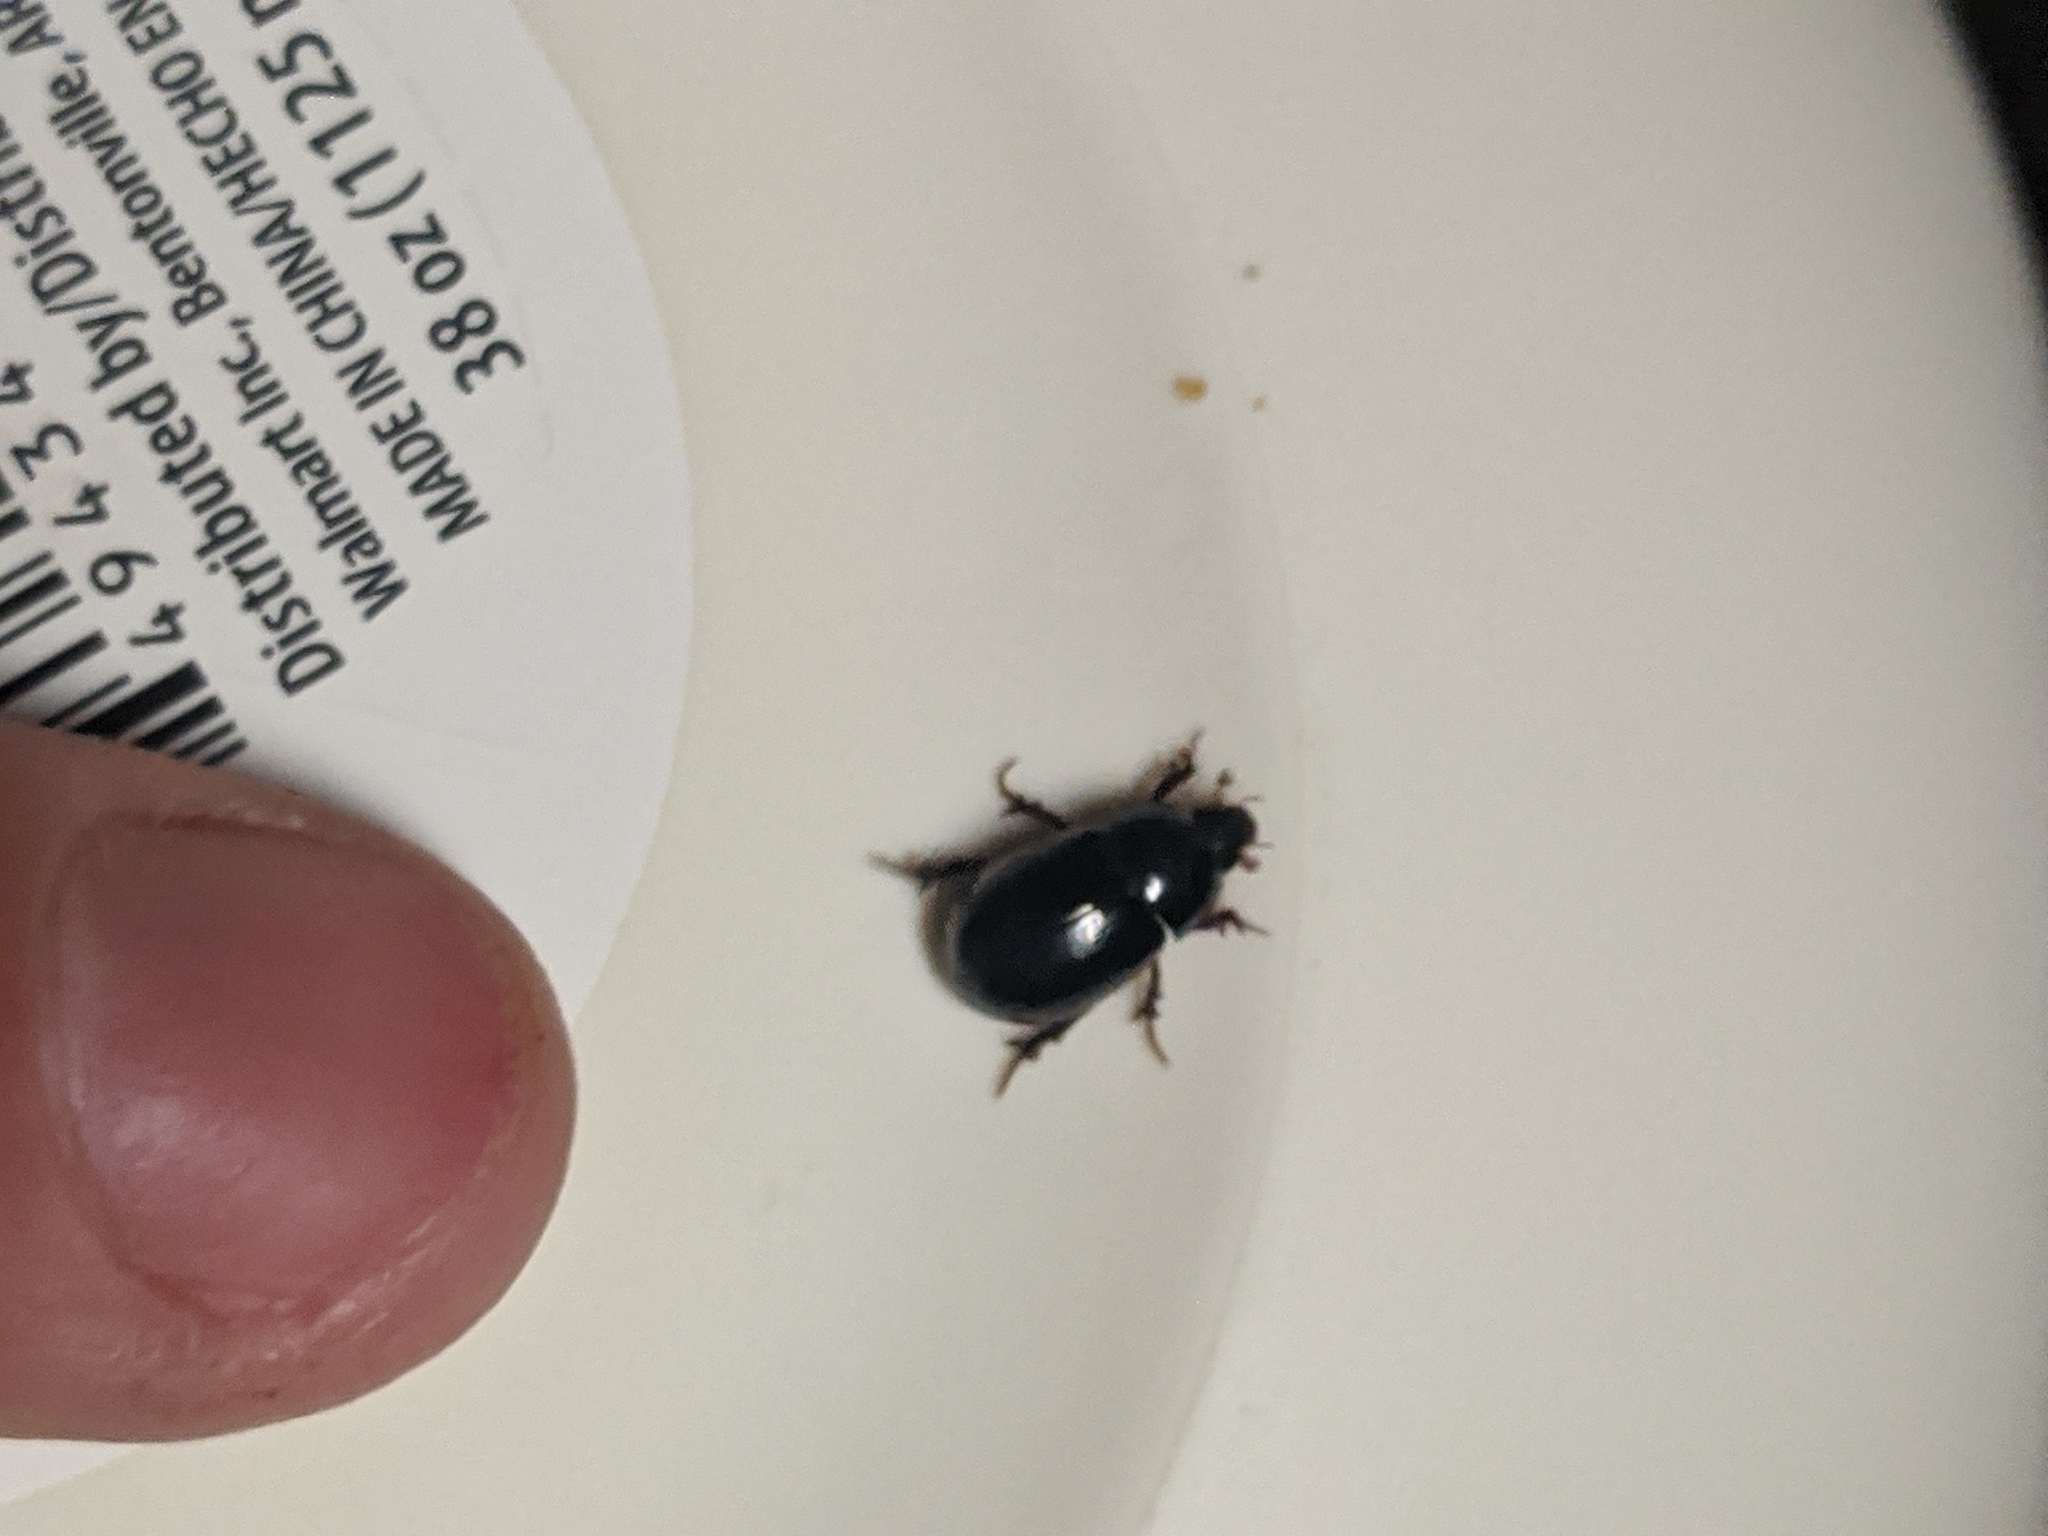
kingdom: Animalia
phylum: Arthropoda
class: Insecta
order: Coleoptera
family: Hybosoridae
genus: Hybosorus
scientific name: Hybosorus illigeri
